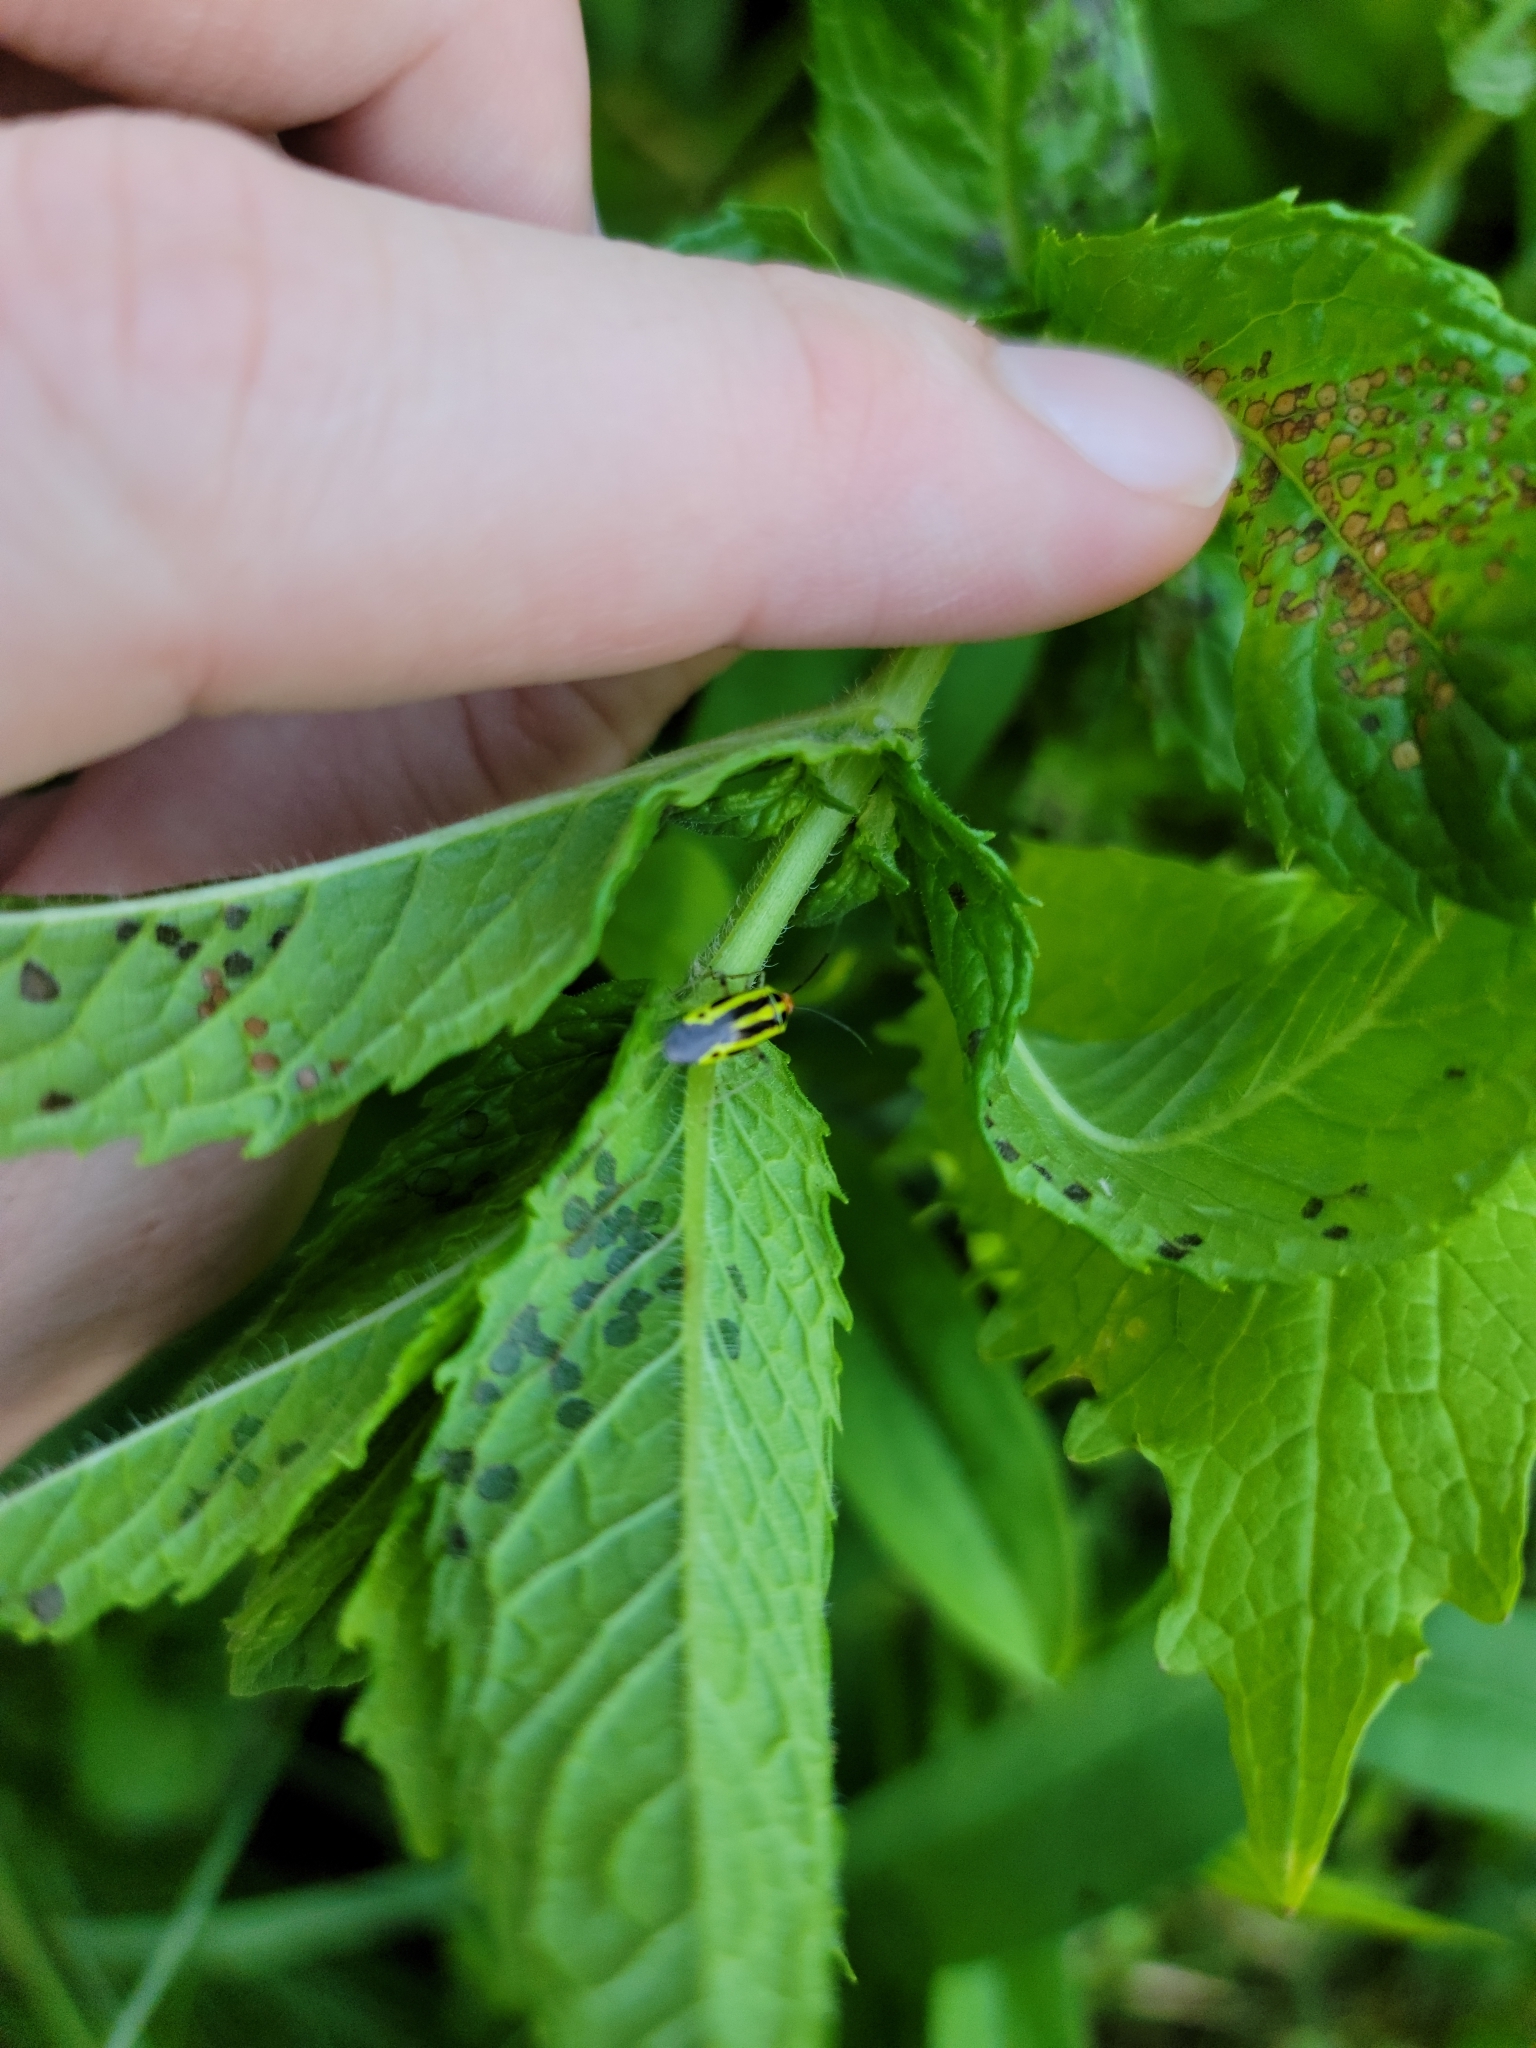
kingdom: Animalia
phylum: Arthropoda
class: Insecta
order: Hemiptera
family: Miridae
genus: Poecilocapsus
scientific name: Poecilocapsus lineatus
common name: Four-lined plant bug
